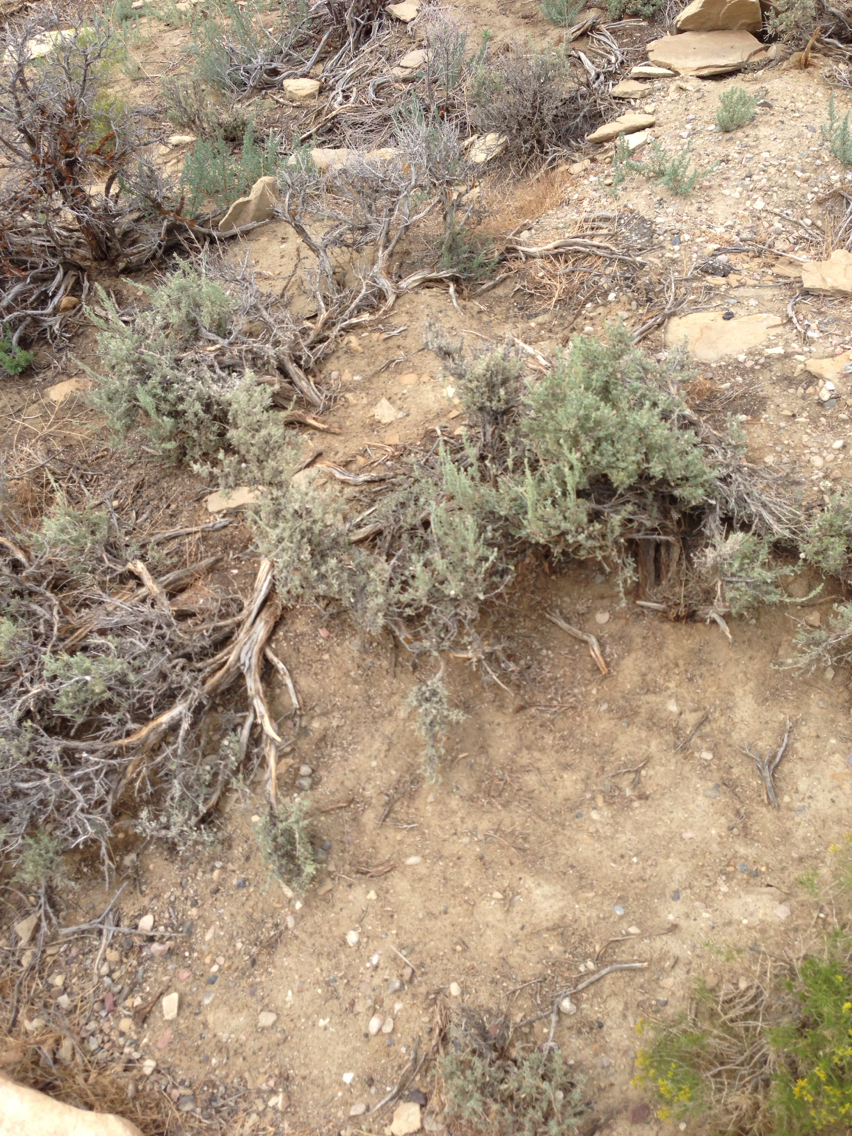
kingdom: Plantae
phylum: Tracheophyta
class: Magnoliopsida
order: Asterales
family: Asteraceae
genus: Artemisia
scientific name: Artemisia tridentata
